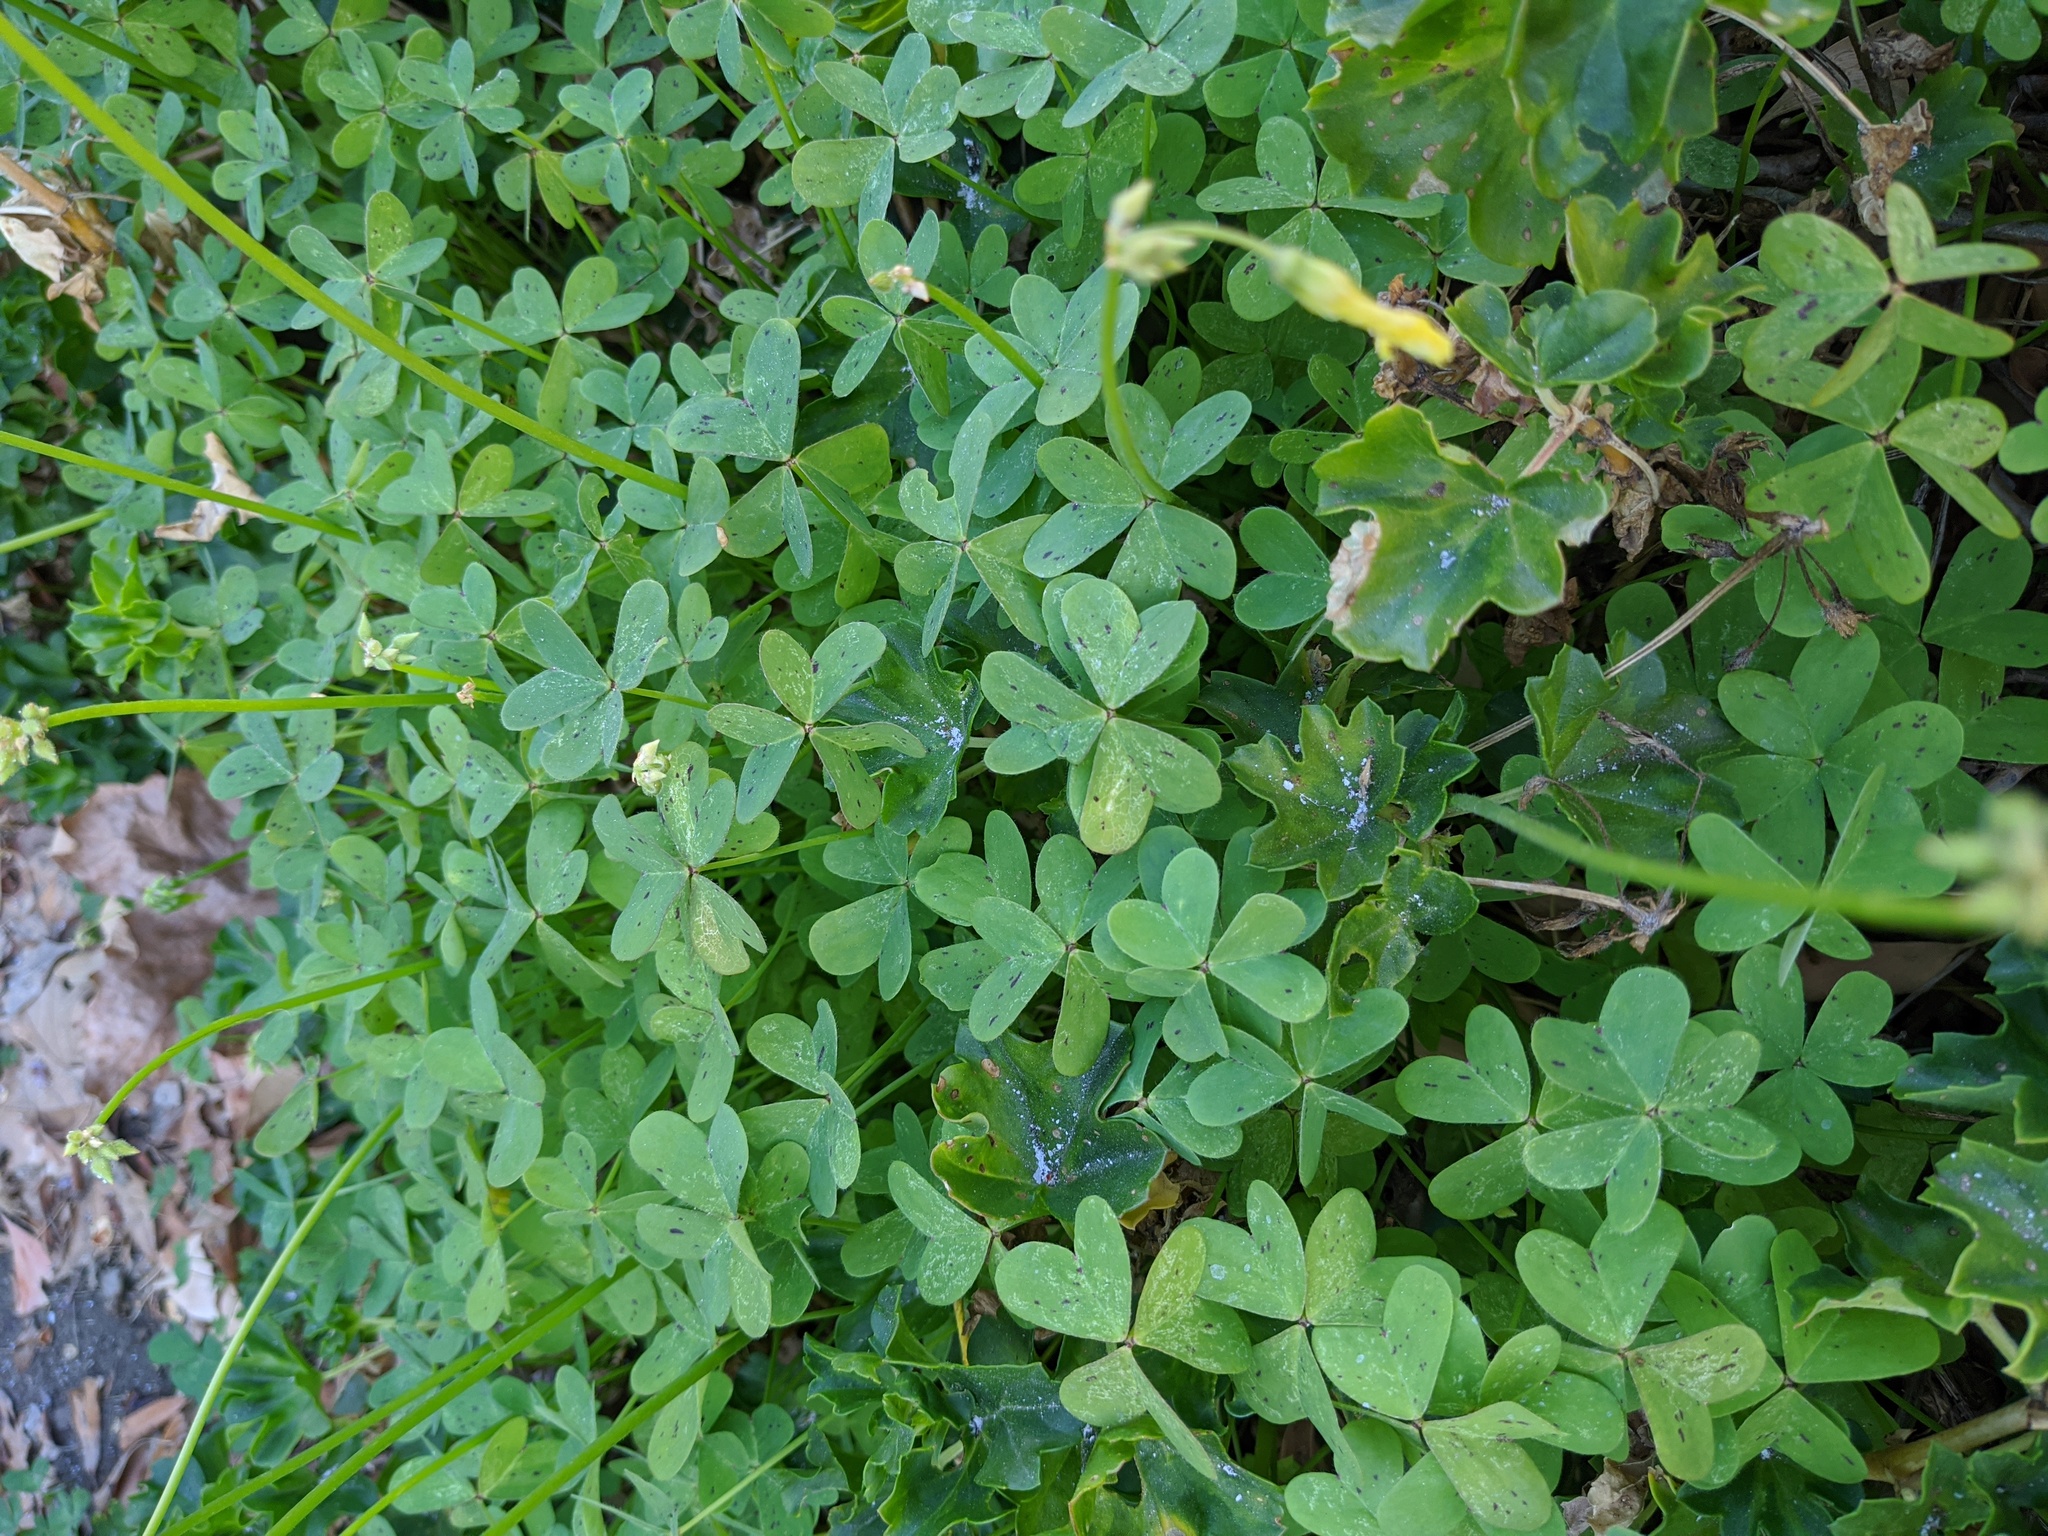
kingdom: Plantae
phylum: Tracheophyta
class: Magnoliopsida
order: Oxalidales
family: Oxalidaceae
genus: Oxalis
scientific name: Oxalis pes-caprae
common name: Bermuda-buttercup
